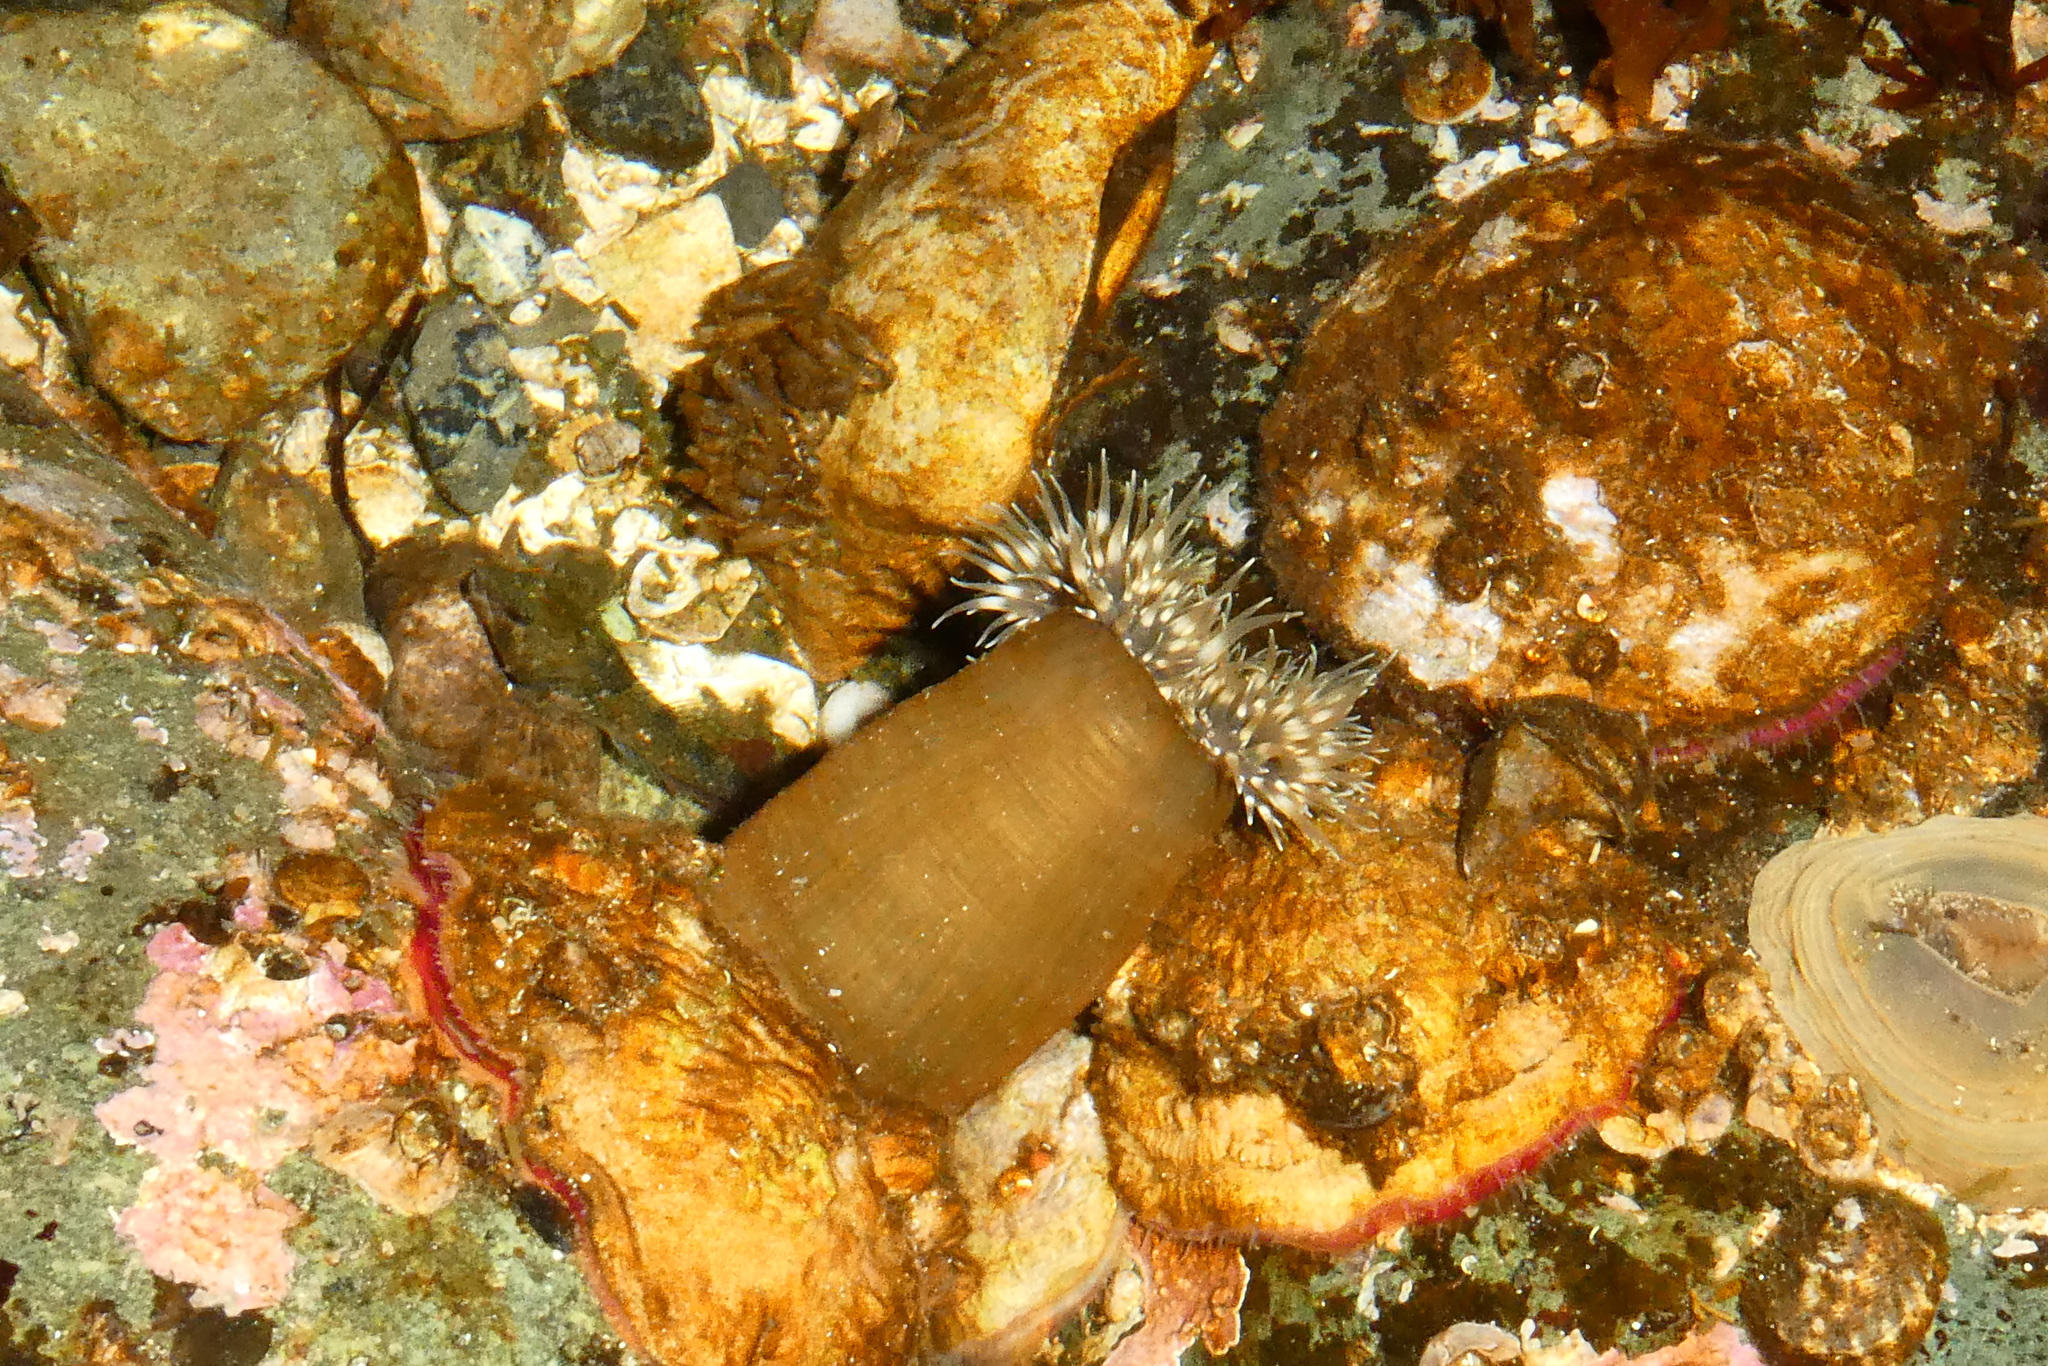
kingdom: Animalia
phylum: Cnidaria
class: Anthozoa
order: Actiniaria
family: Metridiidae
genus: Metridium
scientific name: Metridium senile
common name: Clonal plumose anemone
